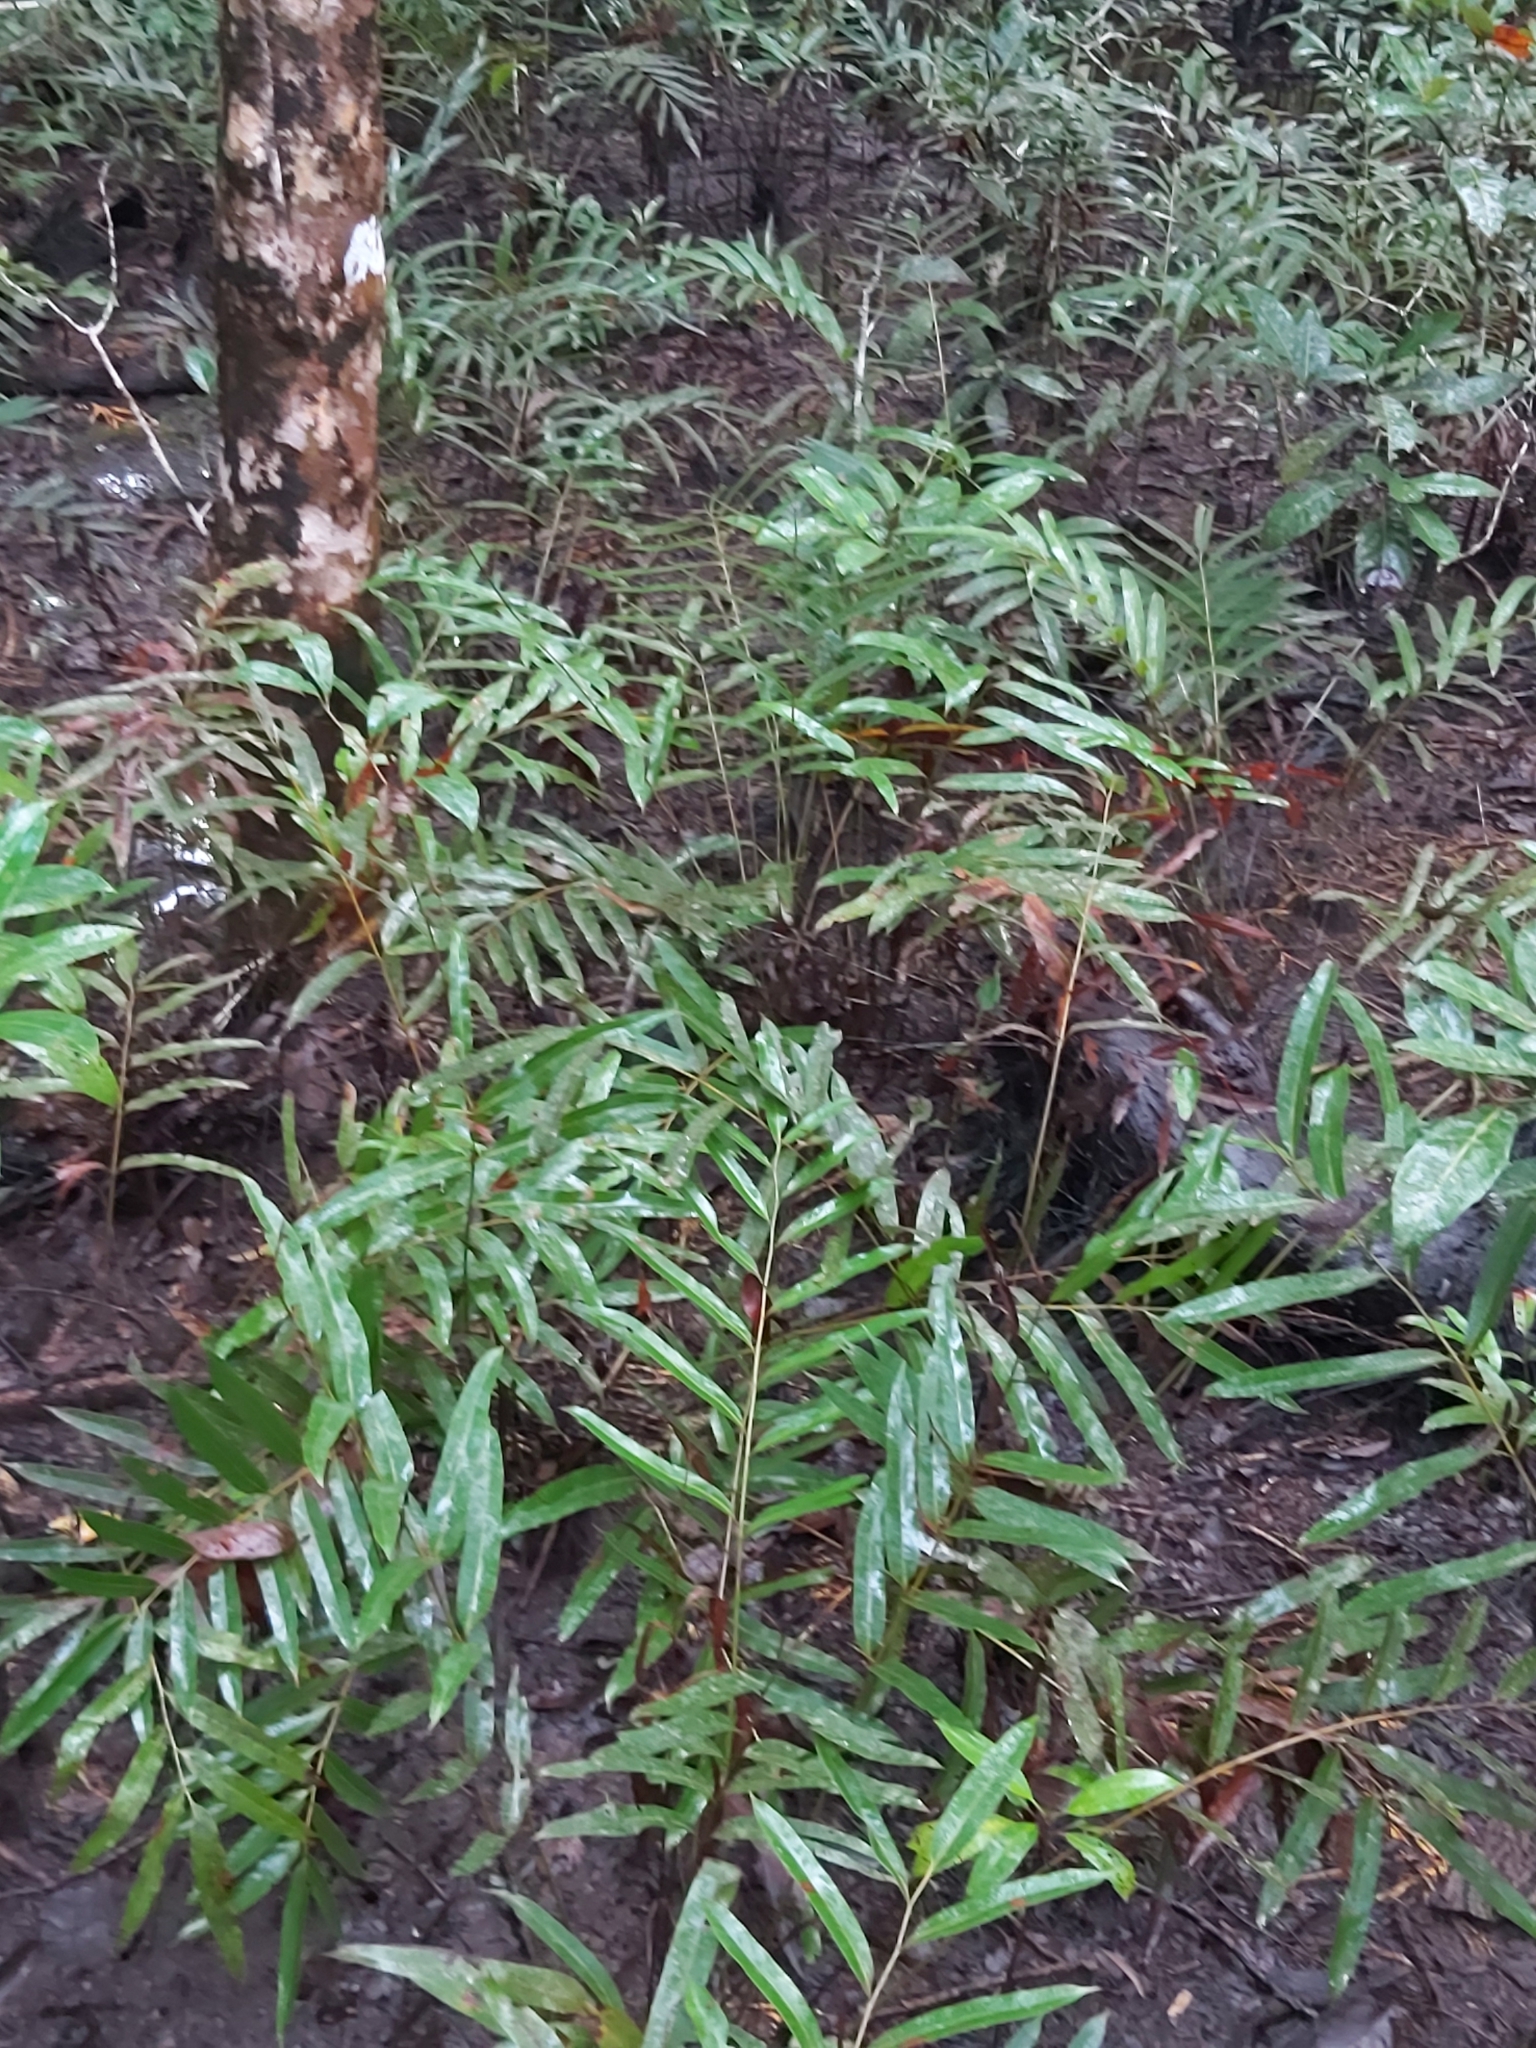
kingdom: Plantae
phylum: Tracheophyta
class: Polypodiopsida
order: Polypodiales
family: Pteridaceae
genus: Acrostichum
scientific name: Acrostichum speciosum
